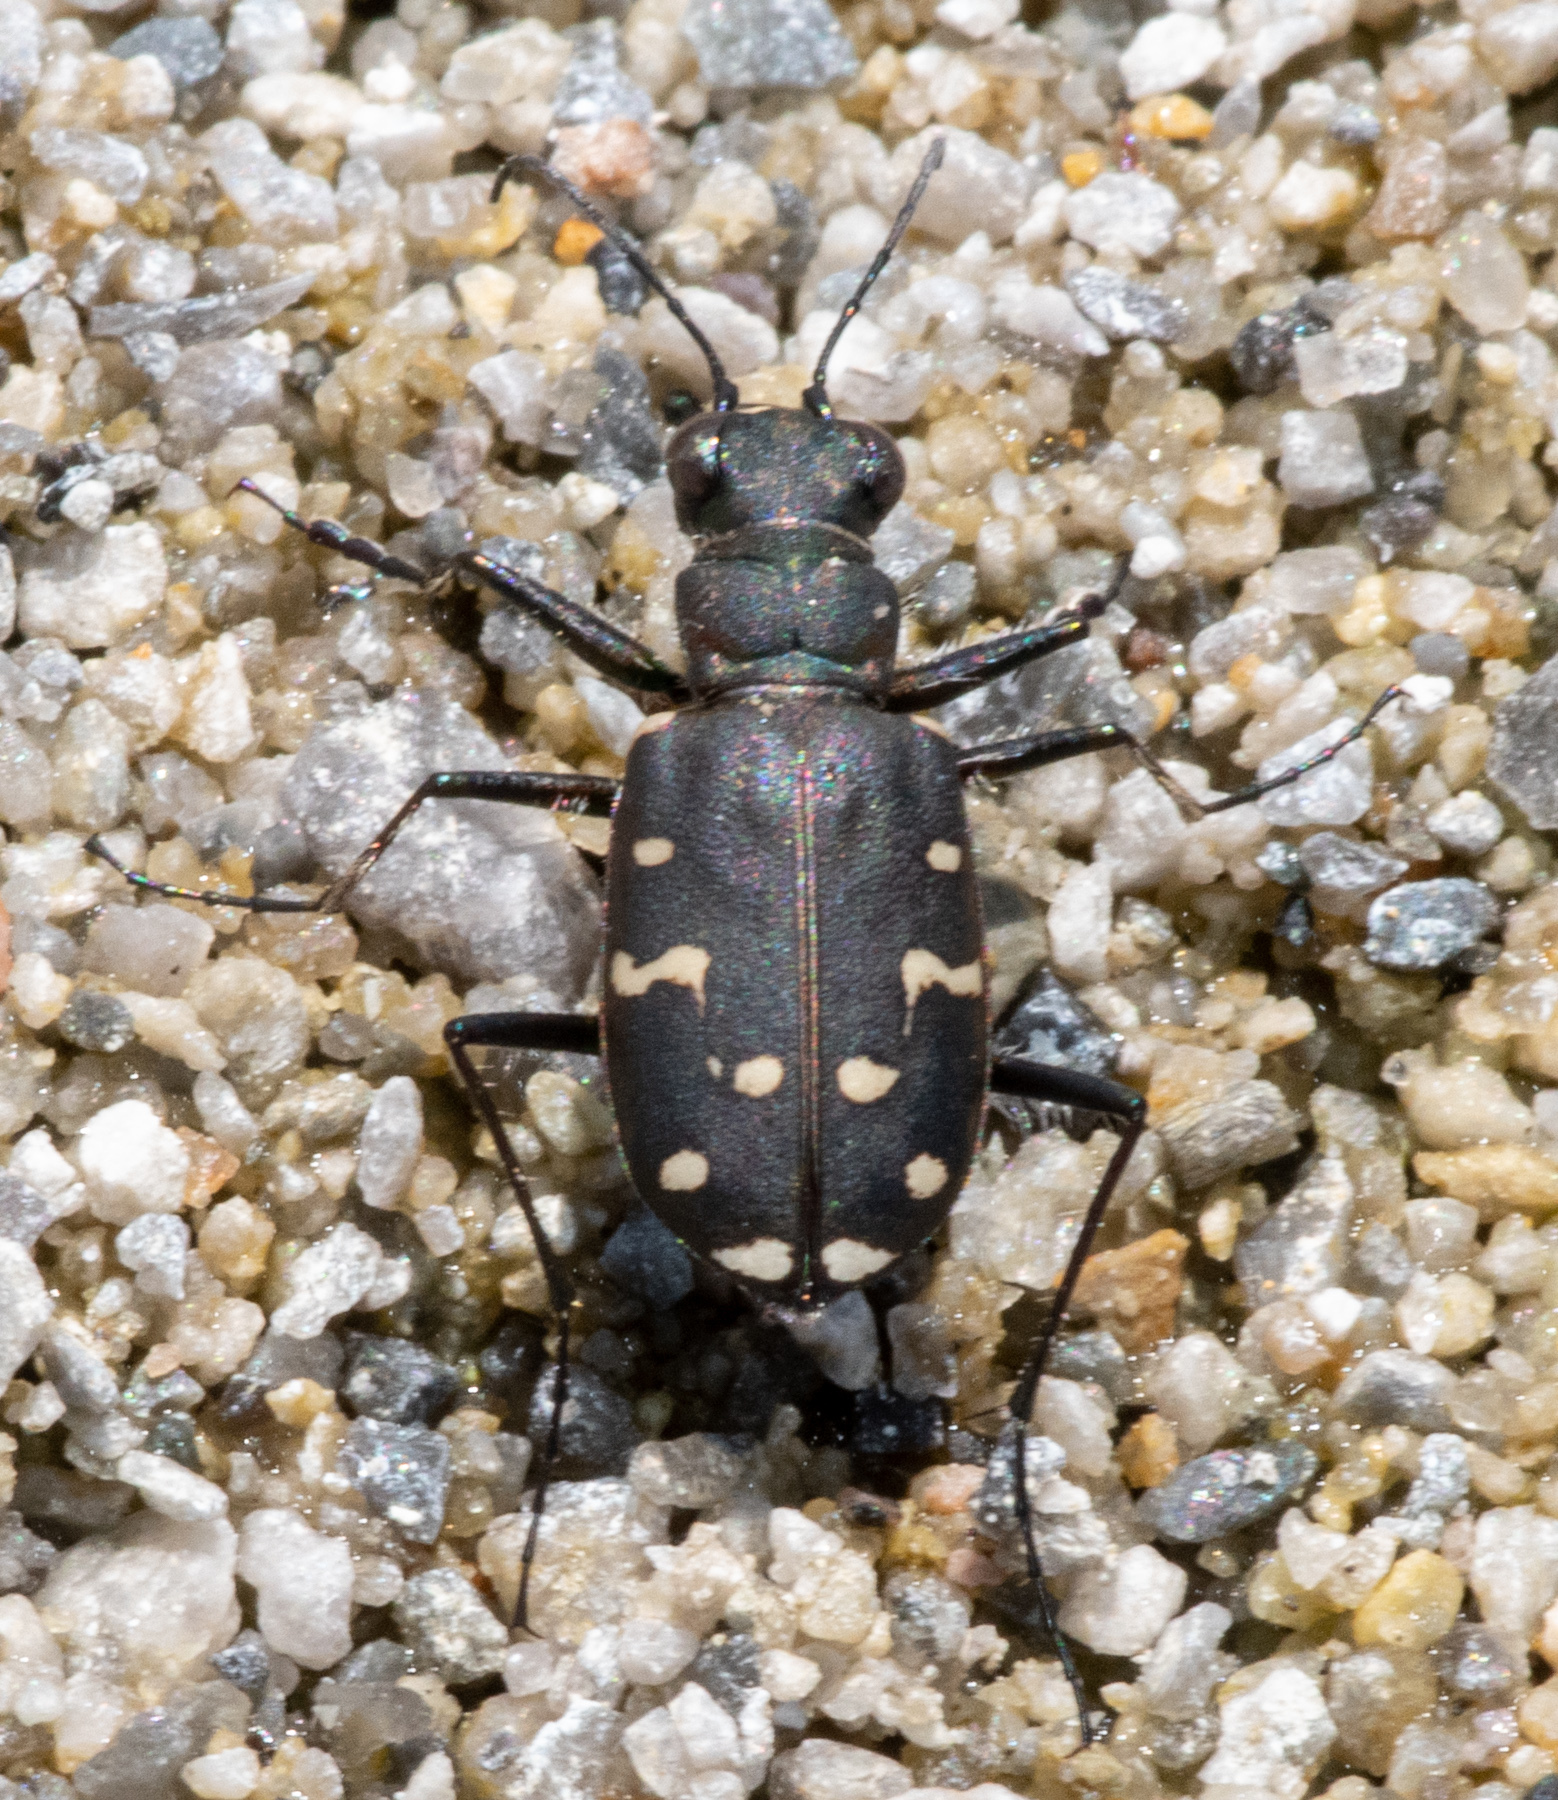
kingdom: Animalia
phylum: Arthropoda
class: Insecta
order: Coleoptera
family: Carabidae
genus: Cicindela
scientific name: Cicindela oregona
